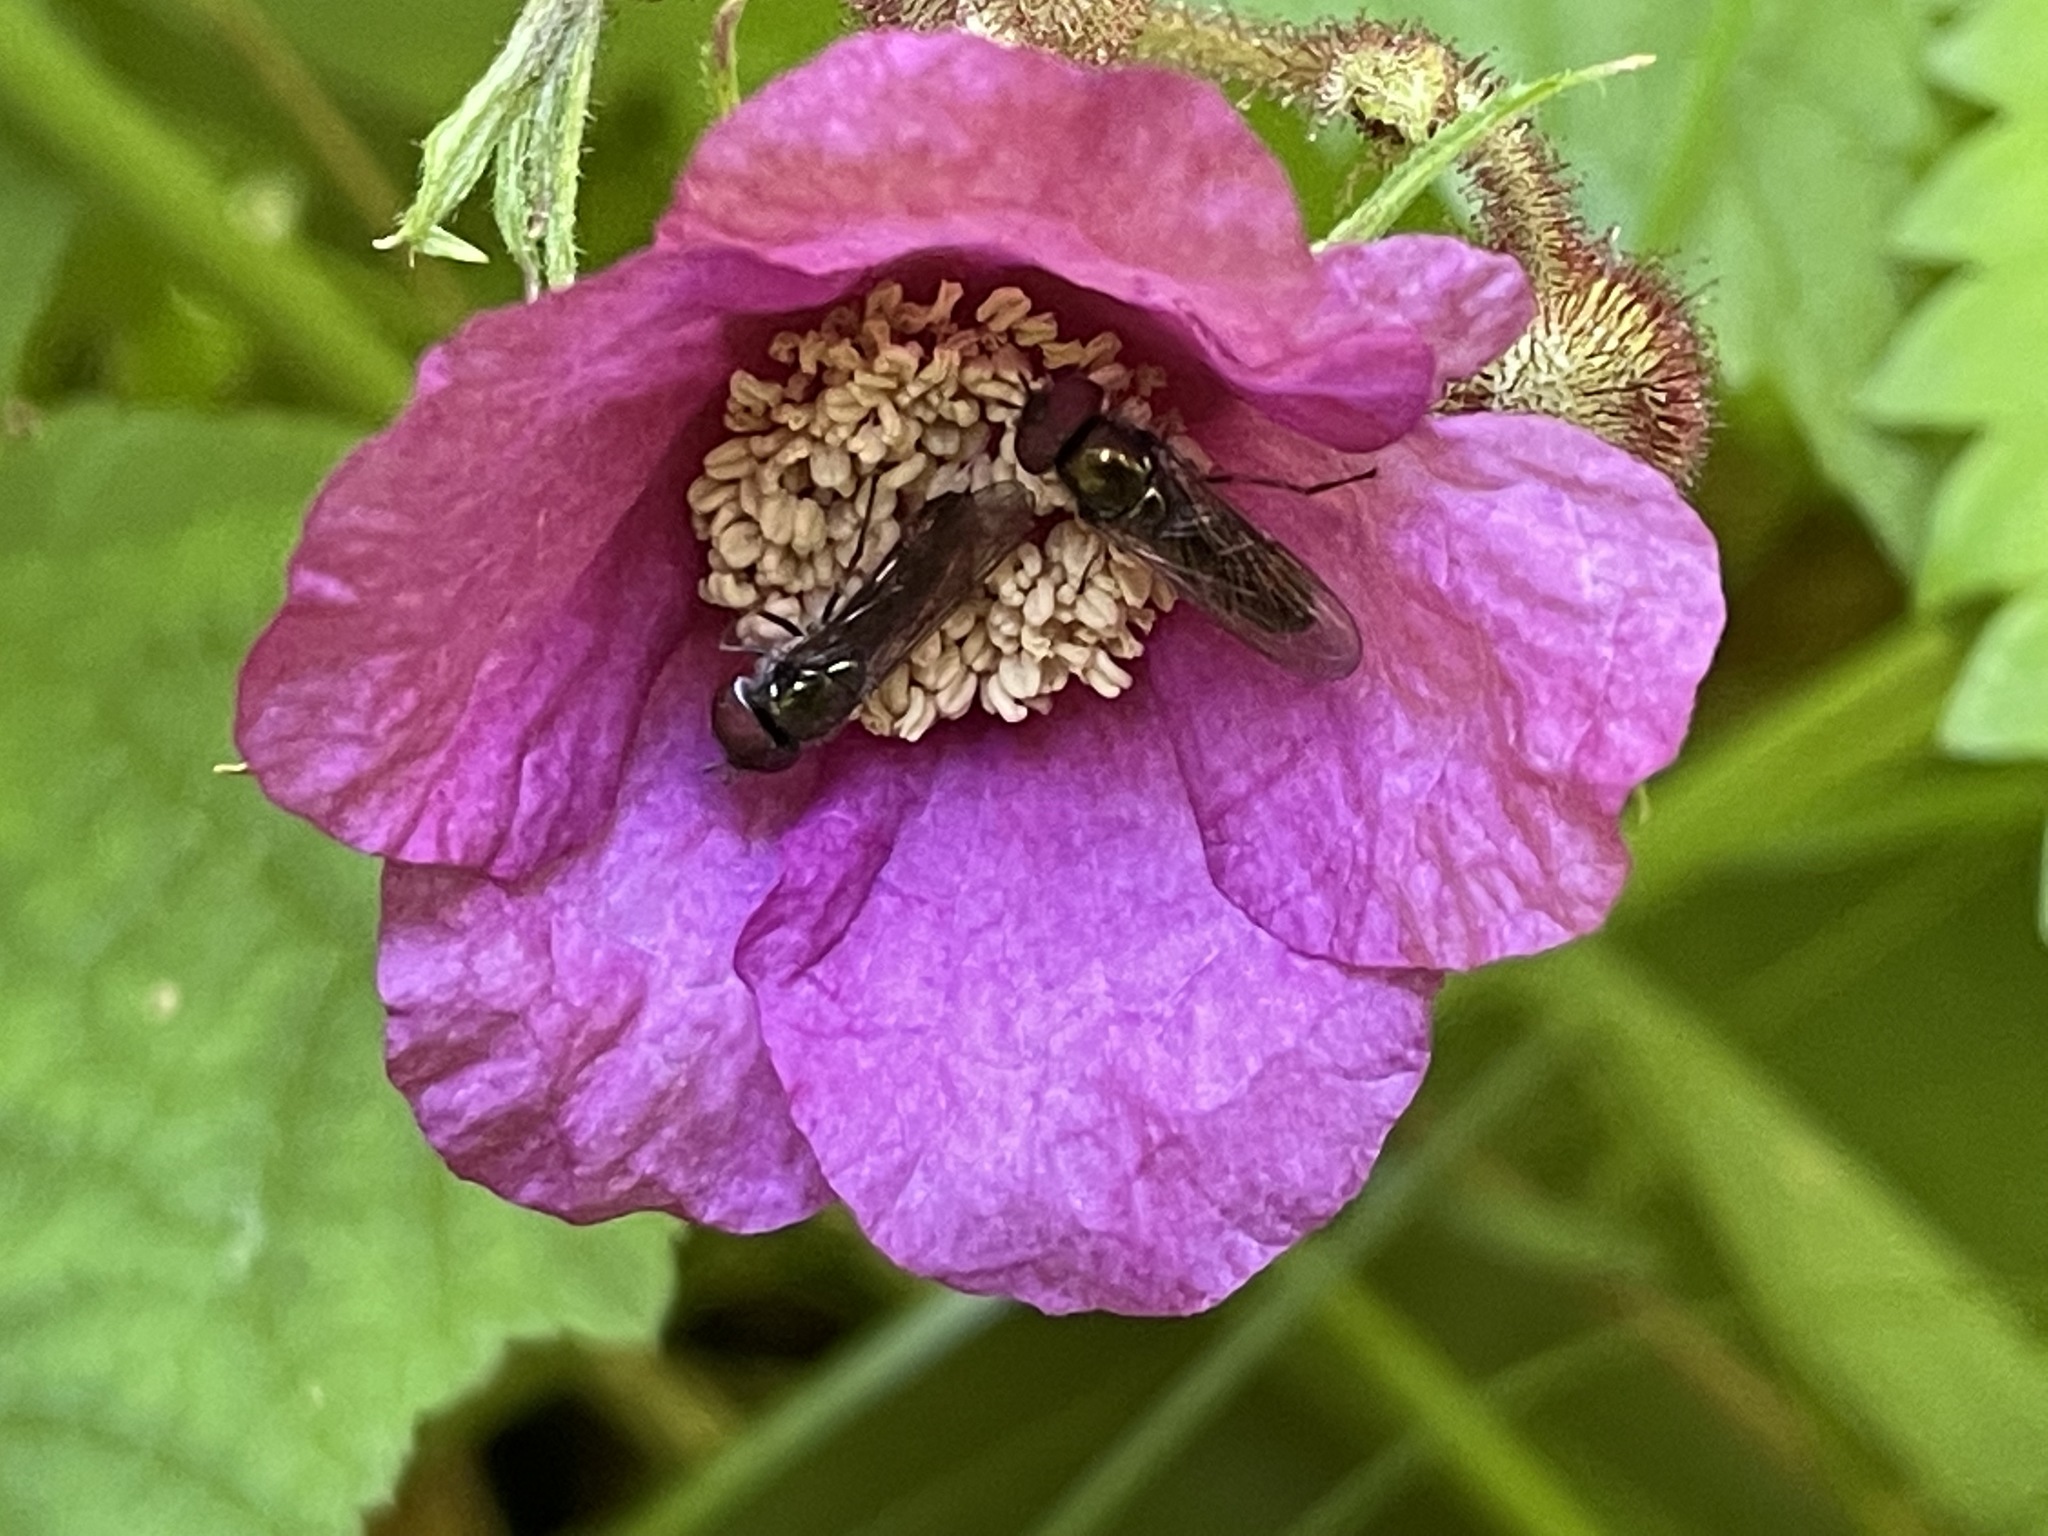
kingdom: Plantae
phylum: Tracheophyta
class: Magnoliopsida
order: Rosales
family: Rosaceae
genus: Rubus
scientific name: Rubus odoratus
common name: Purple-flowered raspberry
